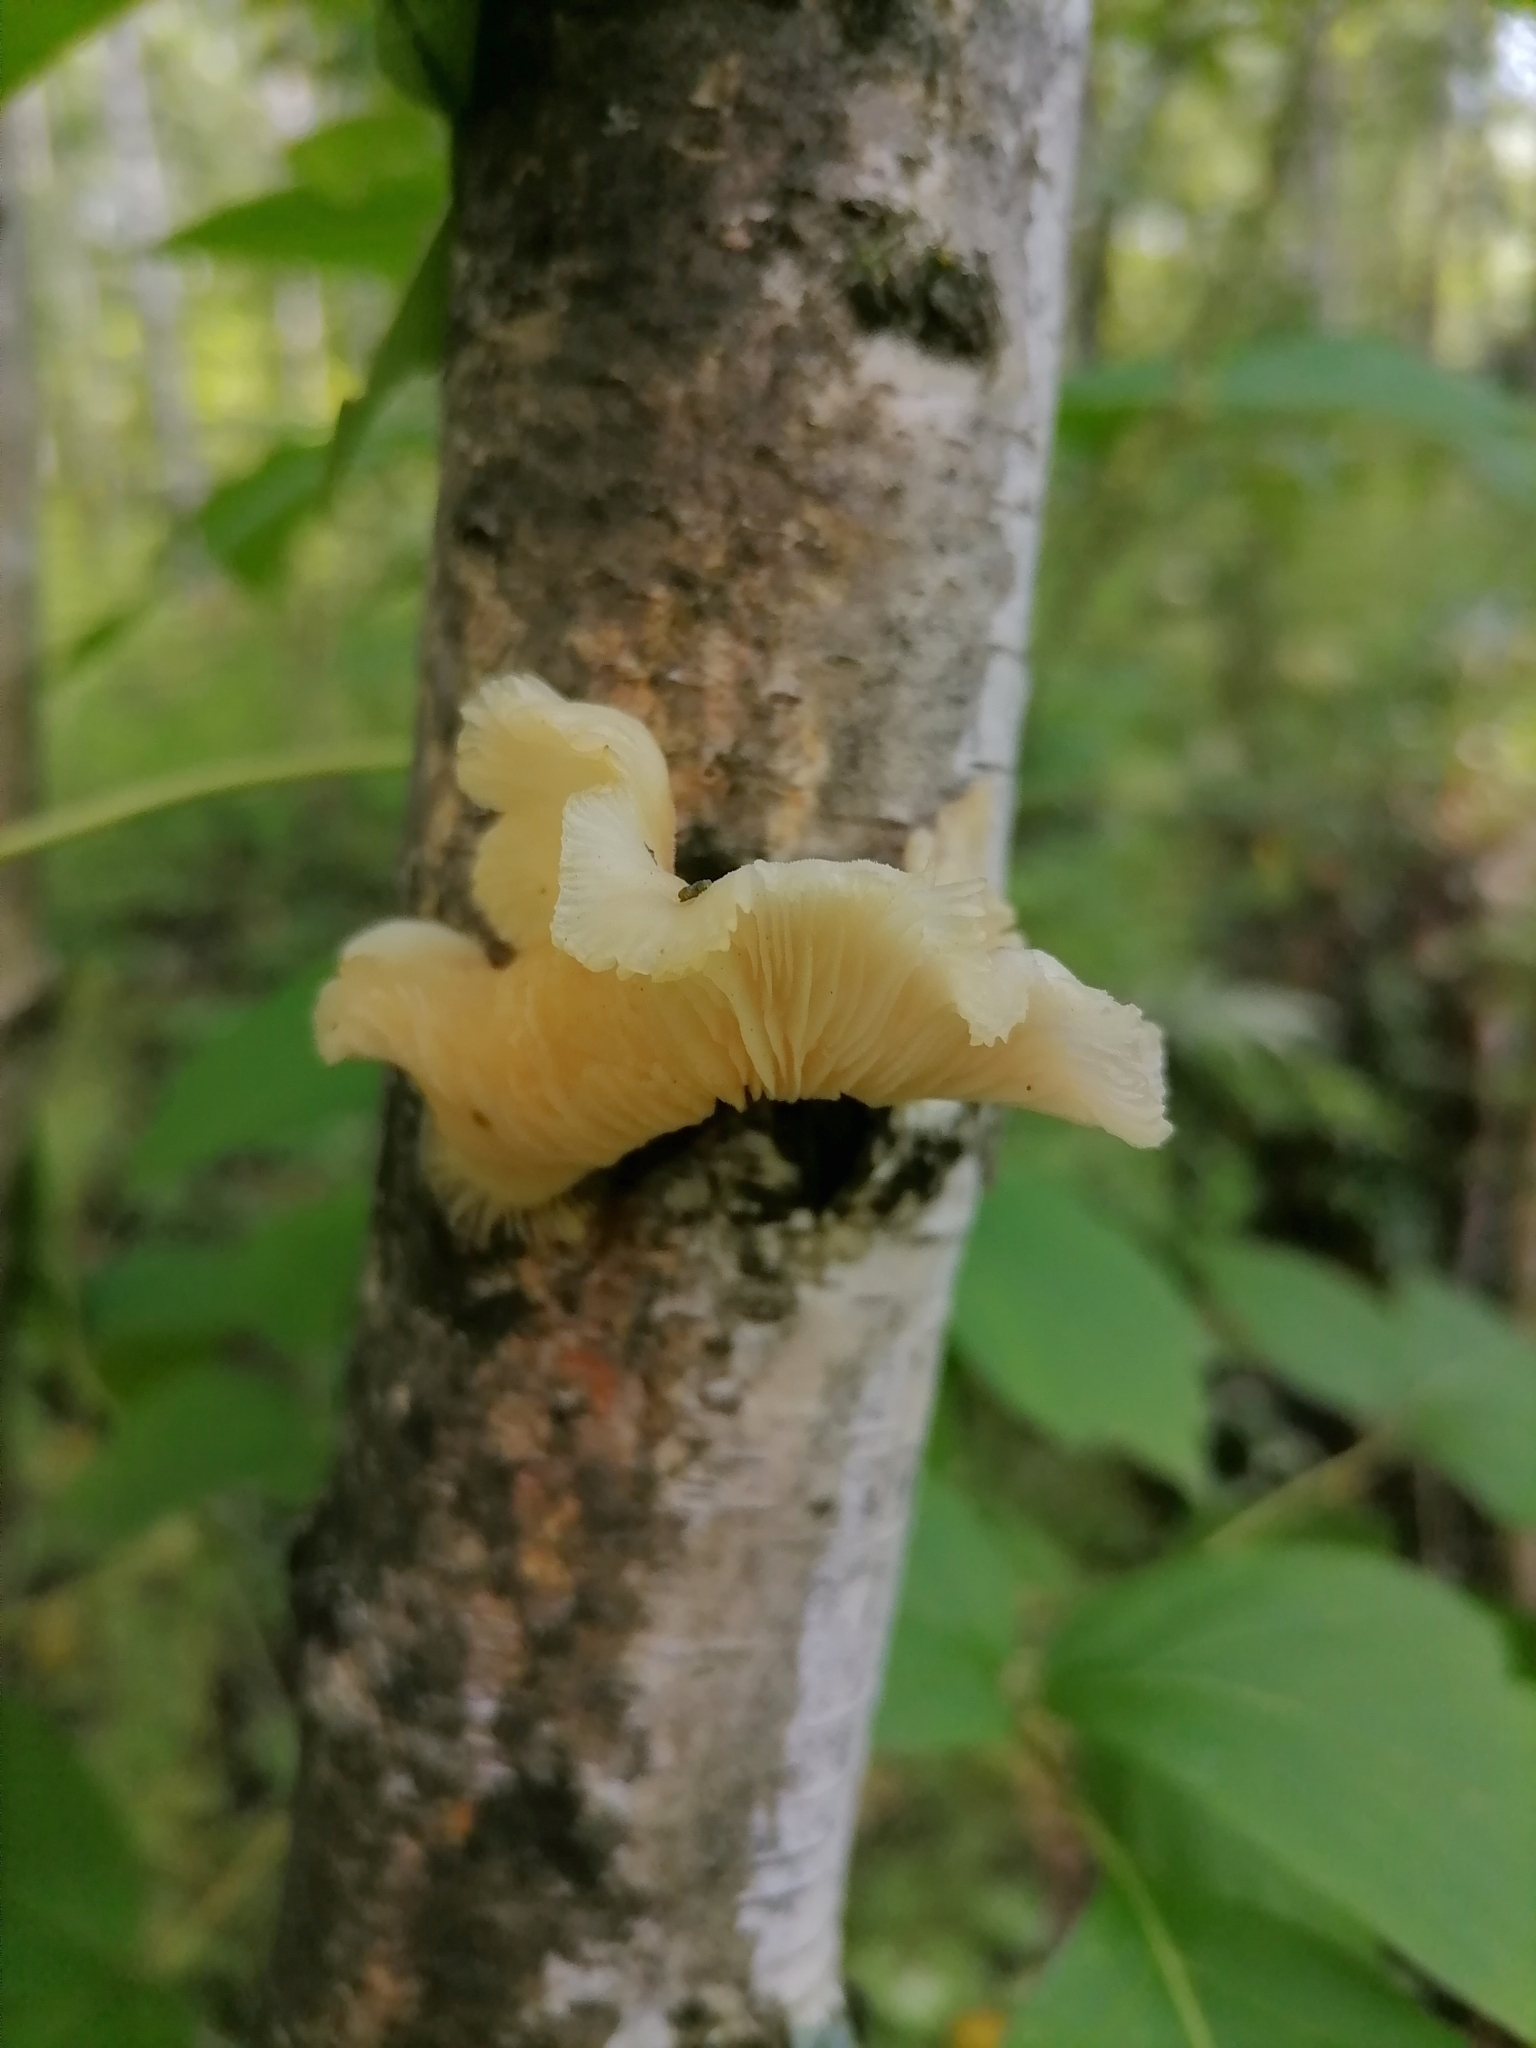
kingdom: Fungi
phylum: Basidiomycota
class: Agaricomycetes
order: Agaricales
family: Pleurotaceae
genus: Pleurotus
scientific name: Pleurotus pulmonarius
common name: Pale oyster
